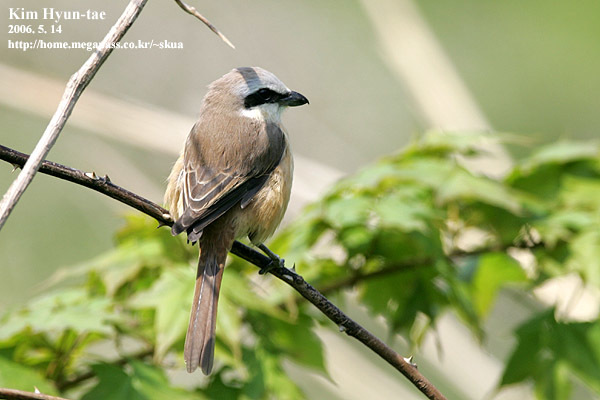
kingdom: Animalia
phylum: Chordata
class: Aves
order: Passeriformes
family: Laniidae
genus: Lanius
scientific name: Lanius cristatus
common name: Brown shrike
